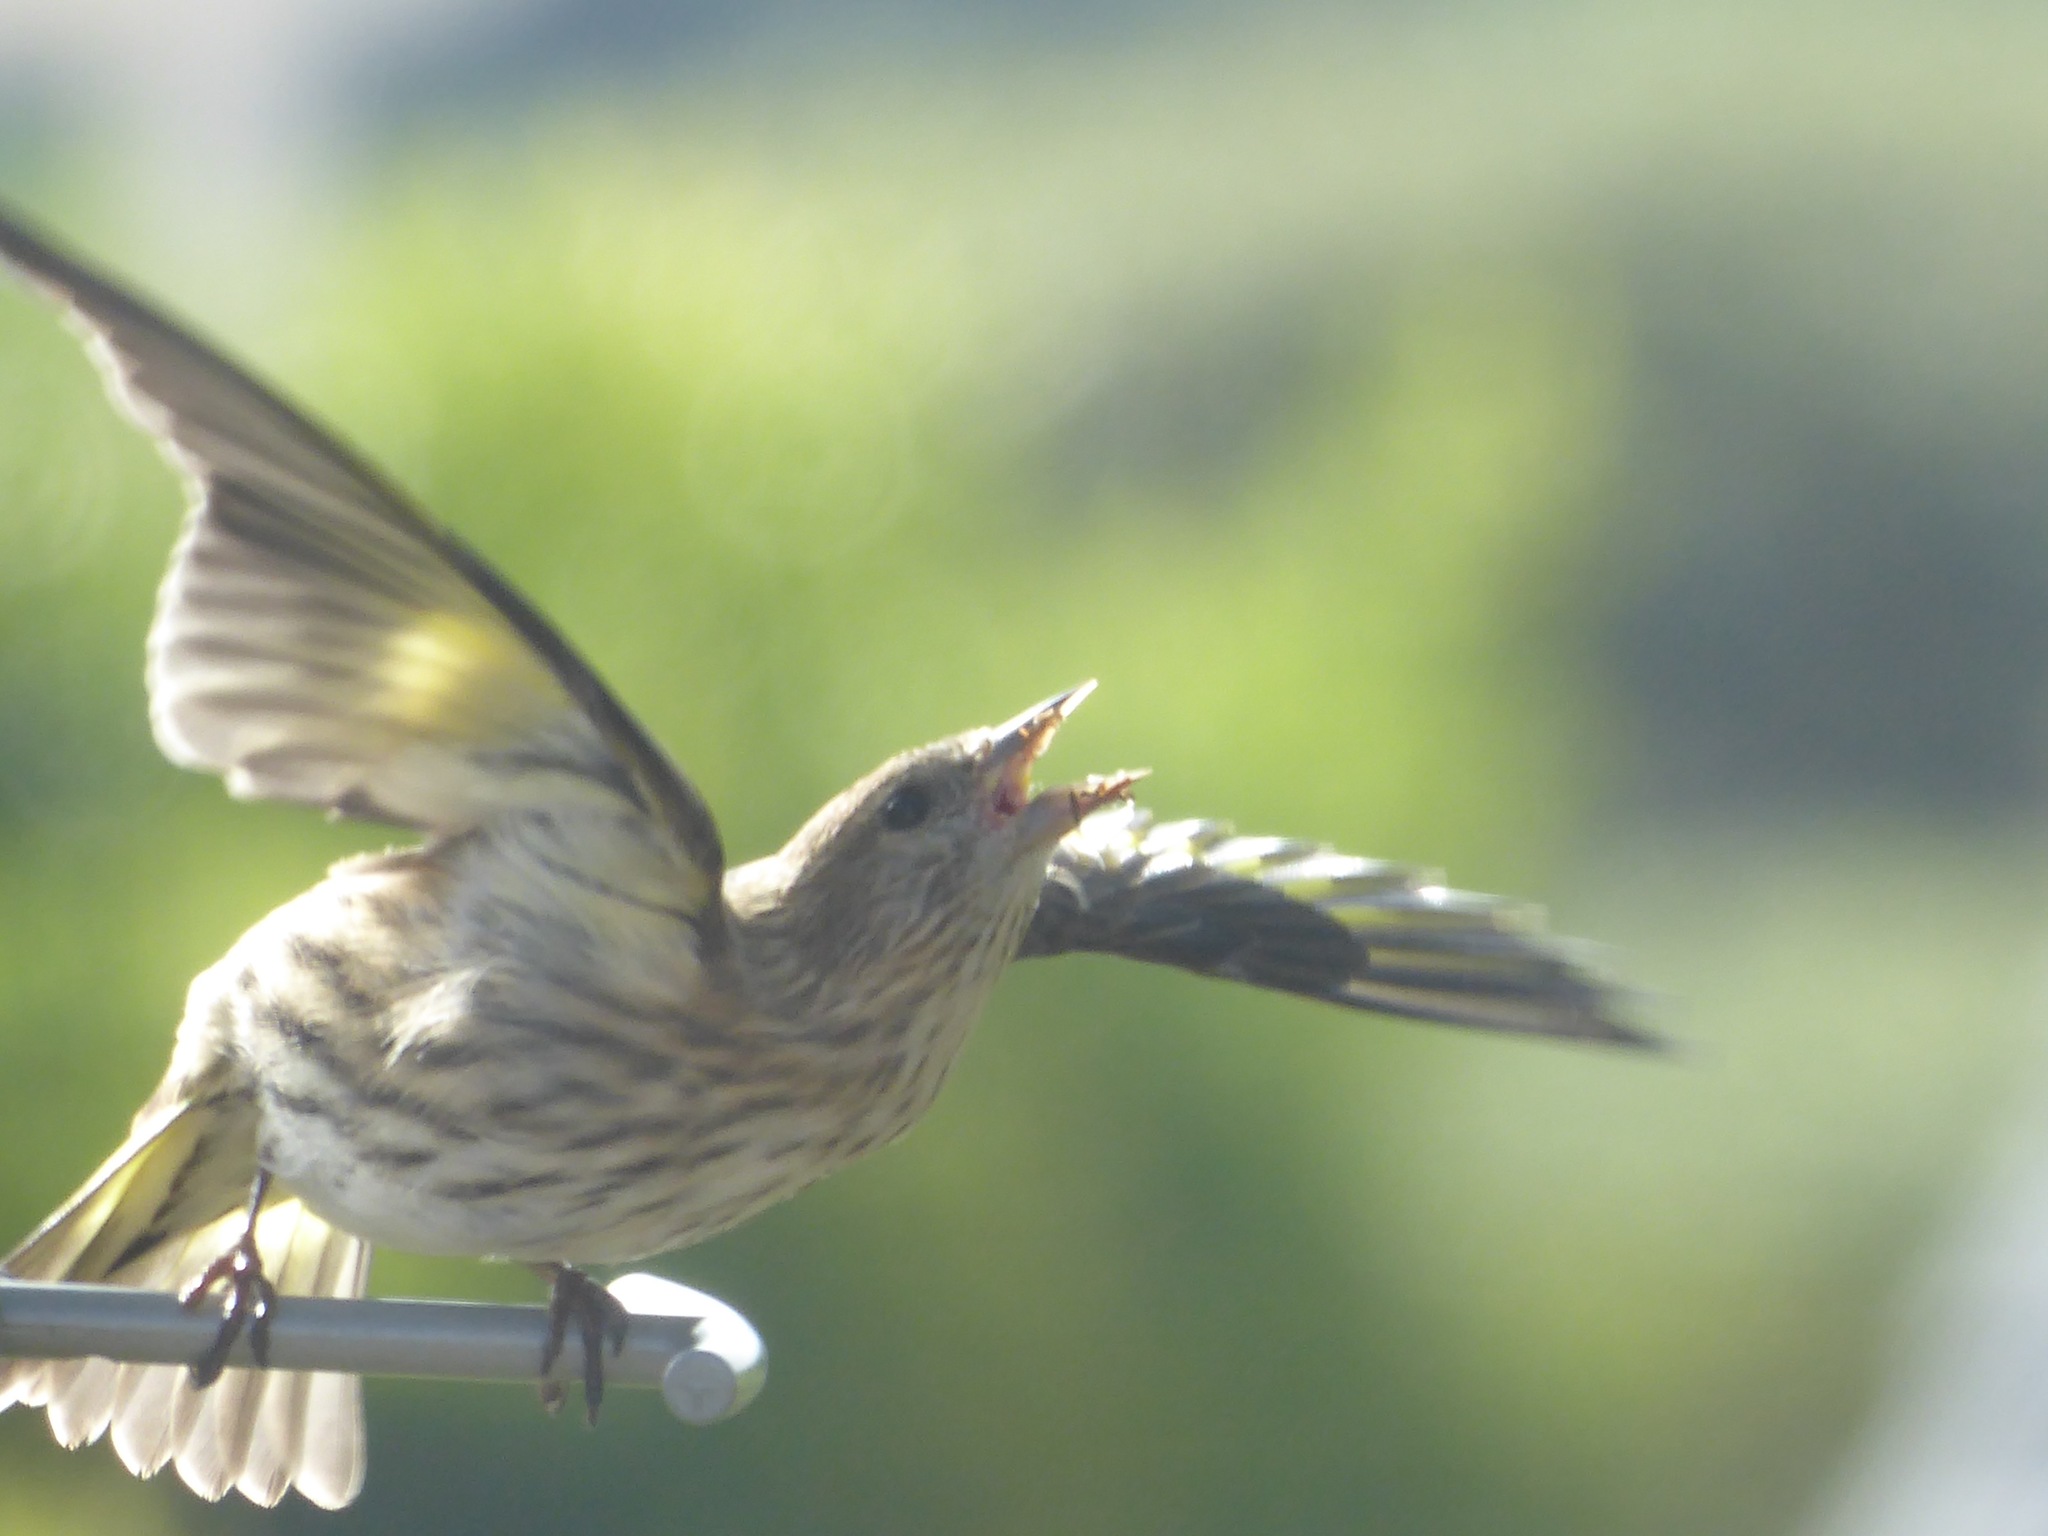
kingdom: Animalia
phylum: Chordata
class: Aves
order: Passeriformes
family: Fringillidae
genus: Spinus
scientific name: Spinus pinus
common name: Pine siskin
